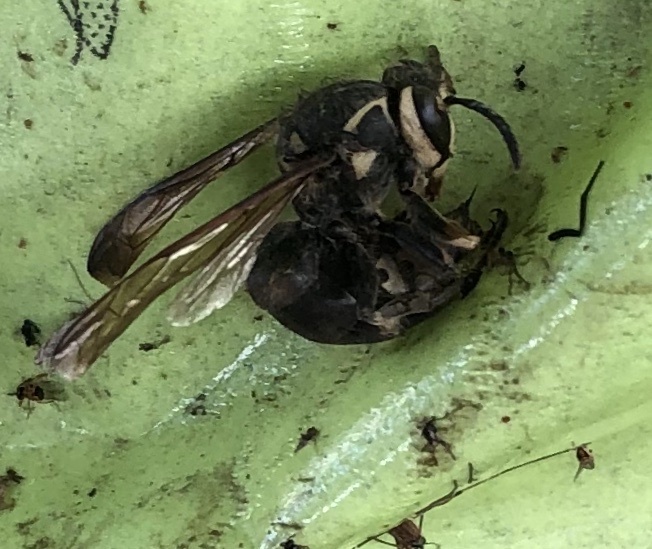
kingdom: Animalia
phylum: Arthropoda
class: Insecta
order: Hymenoptera
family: Vespidae
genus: Dolichovespula
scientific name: Dolichovespula maculata
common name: Bald-faced hornet
